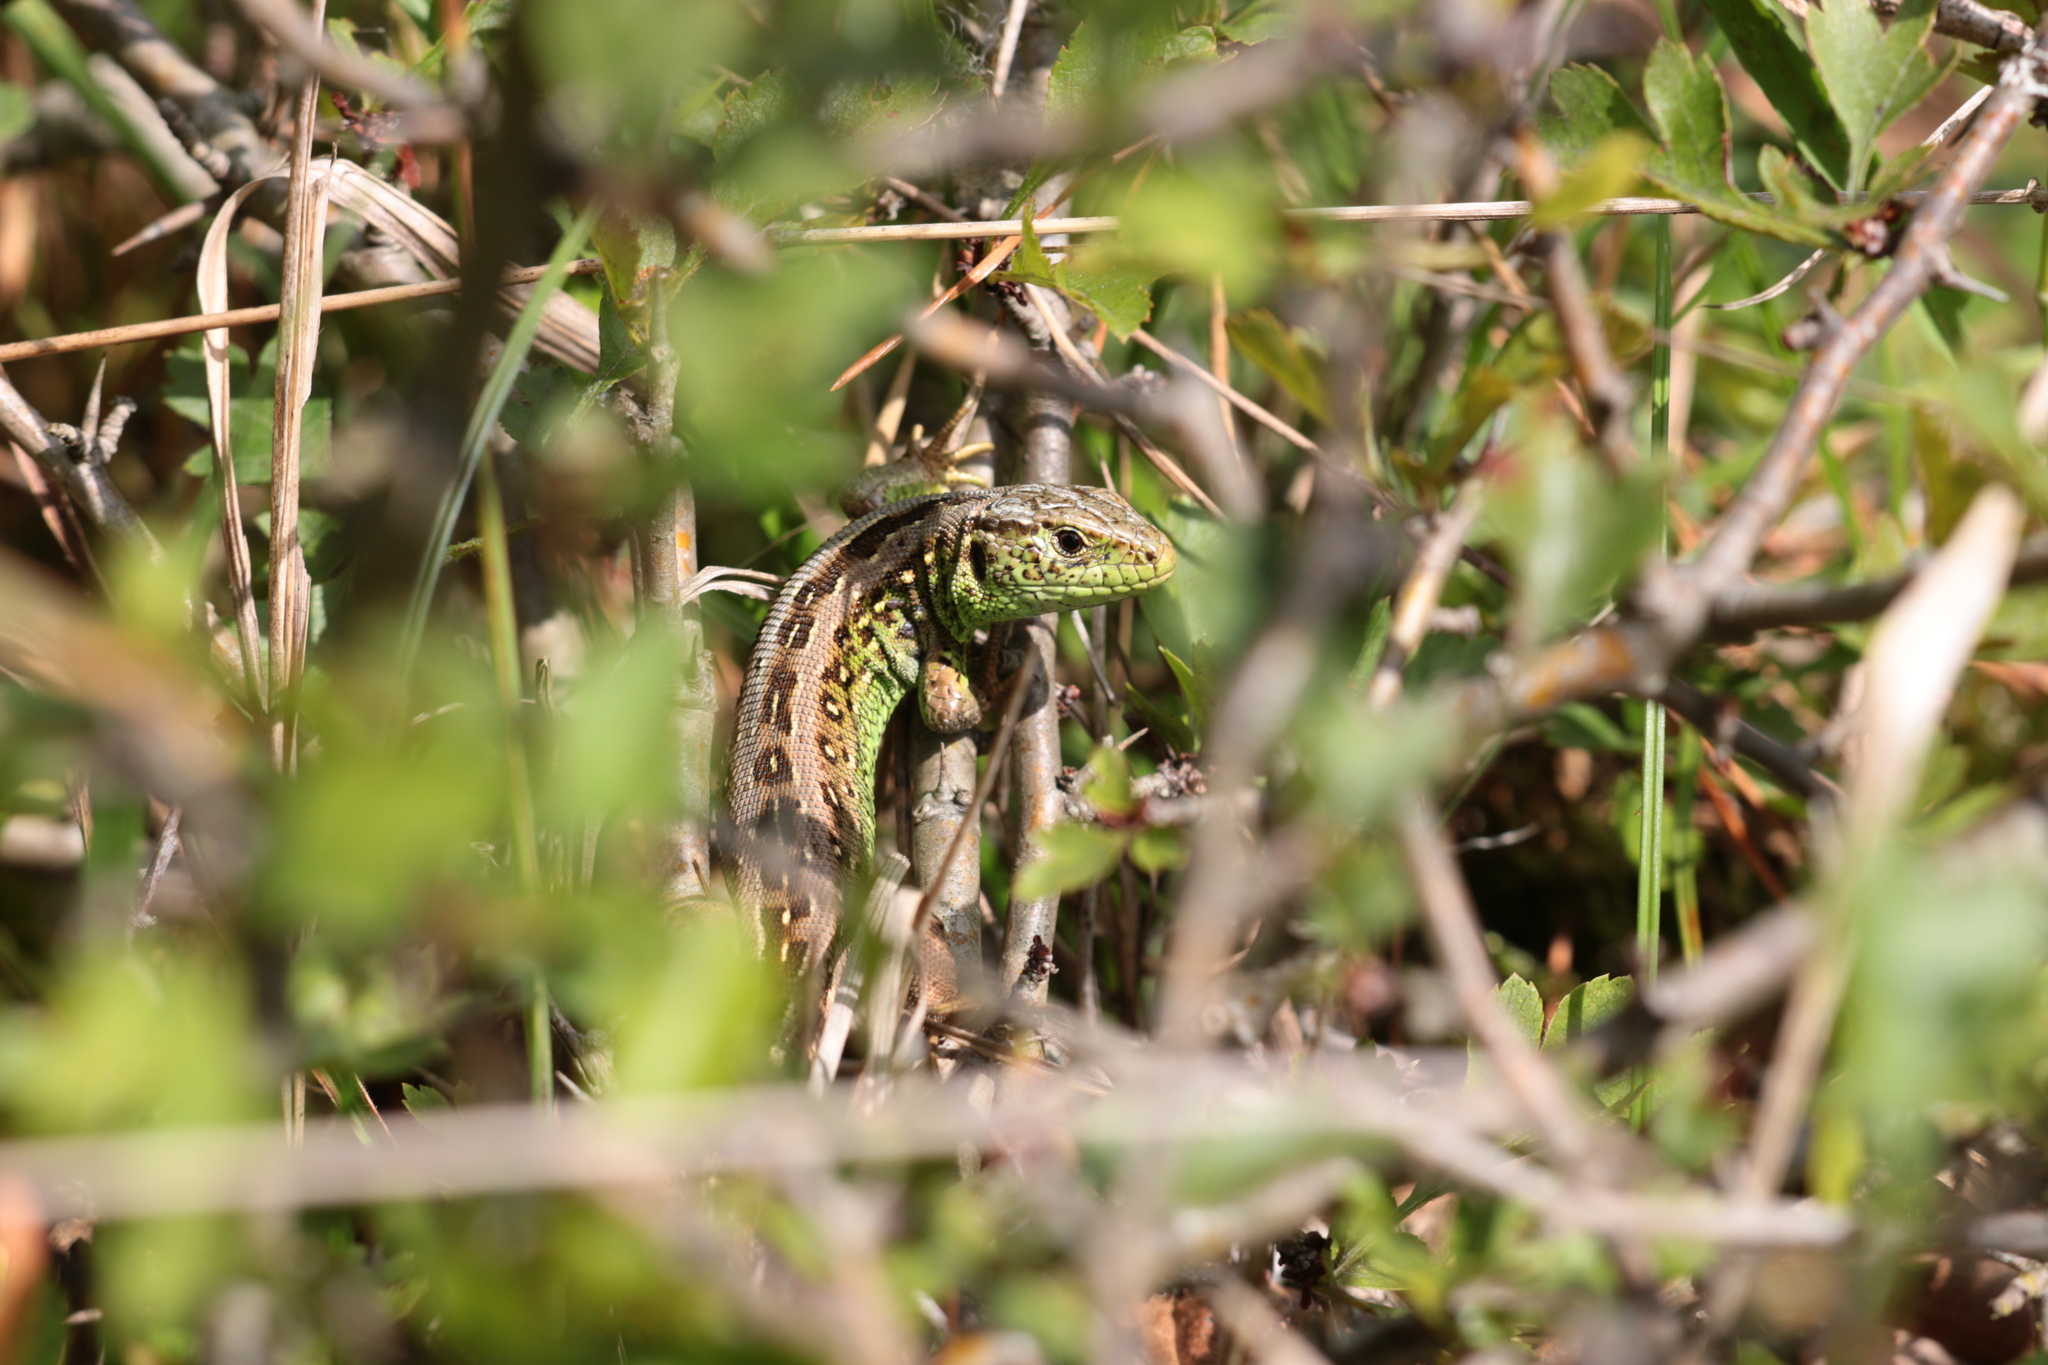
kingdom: Animalia
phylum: Chordata
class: Squamata
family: Lacertidae
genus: Lacerta
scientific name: Lacerta agilis
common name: Sand lizard
